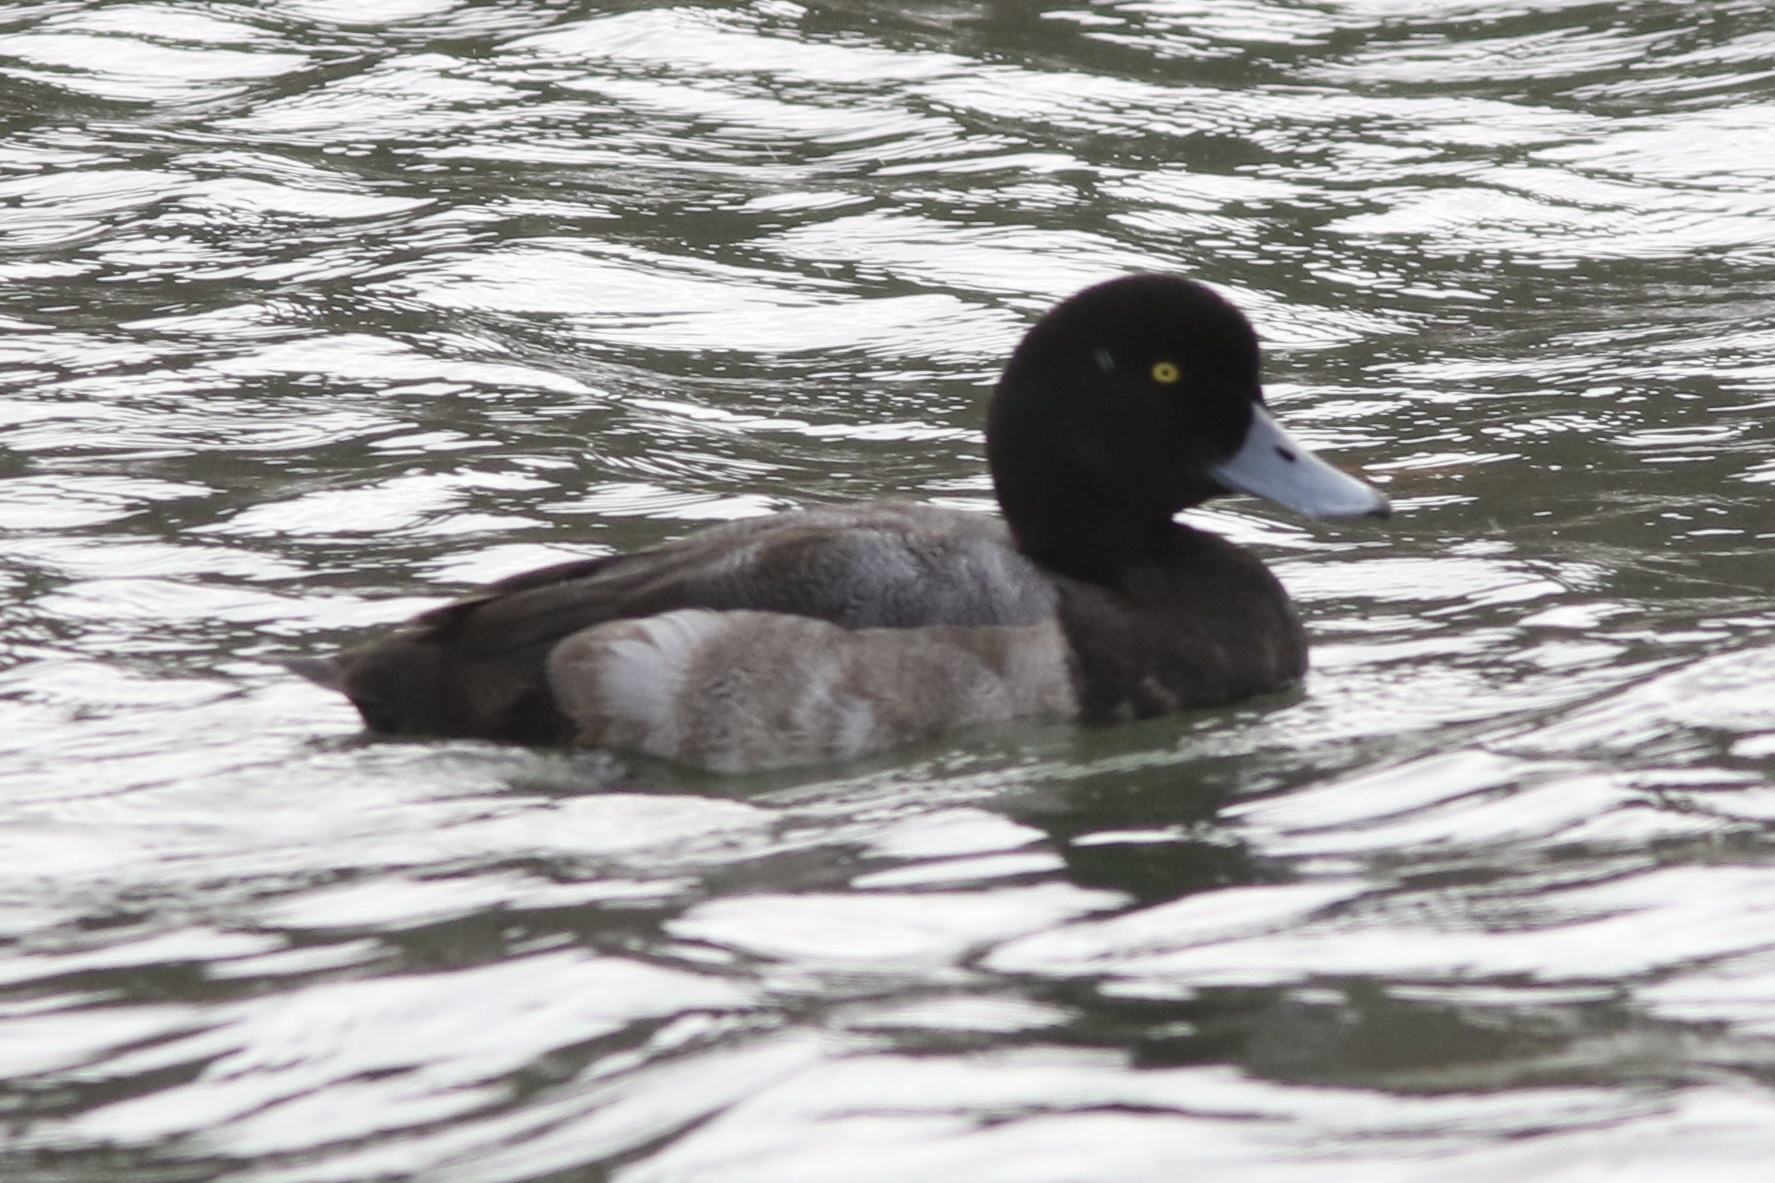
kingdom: Animalia
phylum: Chordata
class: Aves
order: Anseriformes
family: Anatidae
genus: Aythya
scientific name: Aythya marila
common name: Greater scaup
